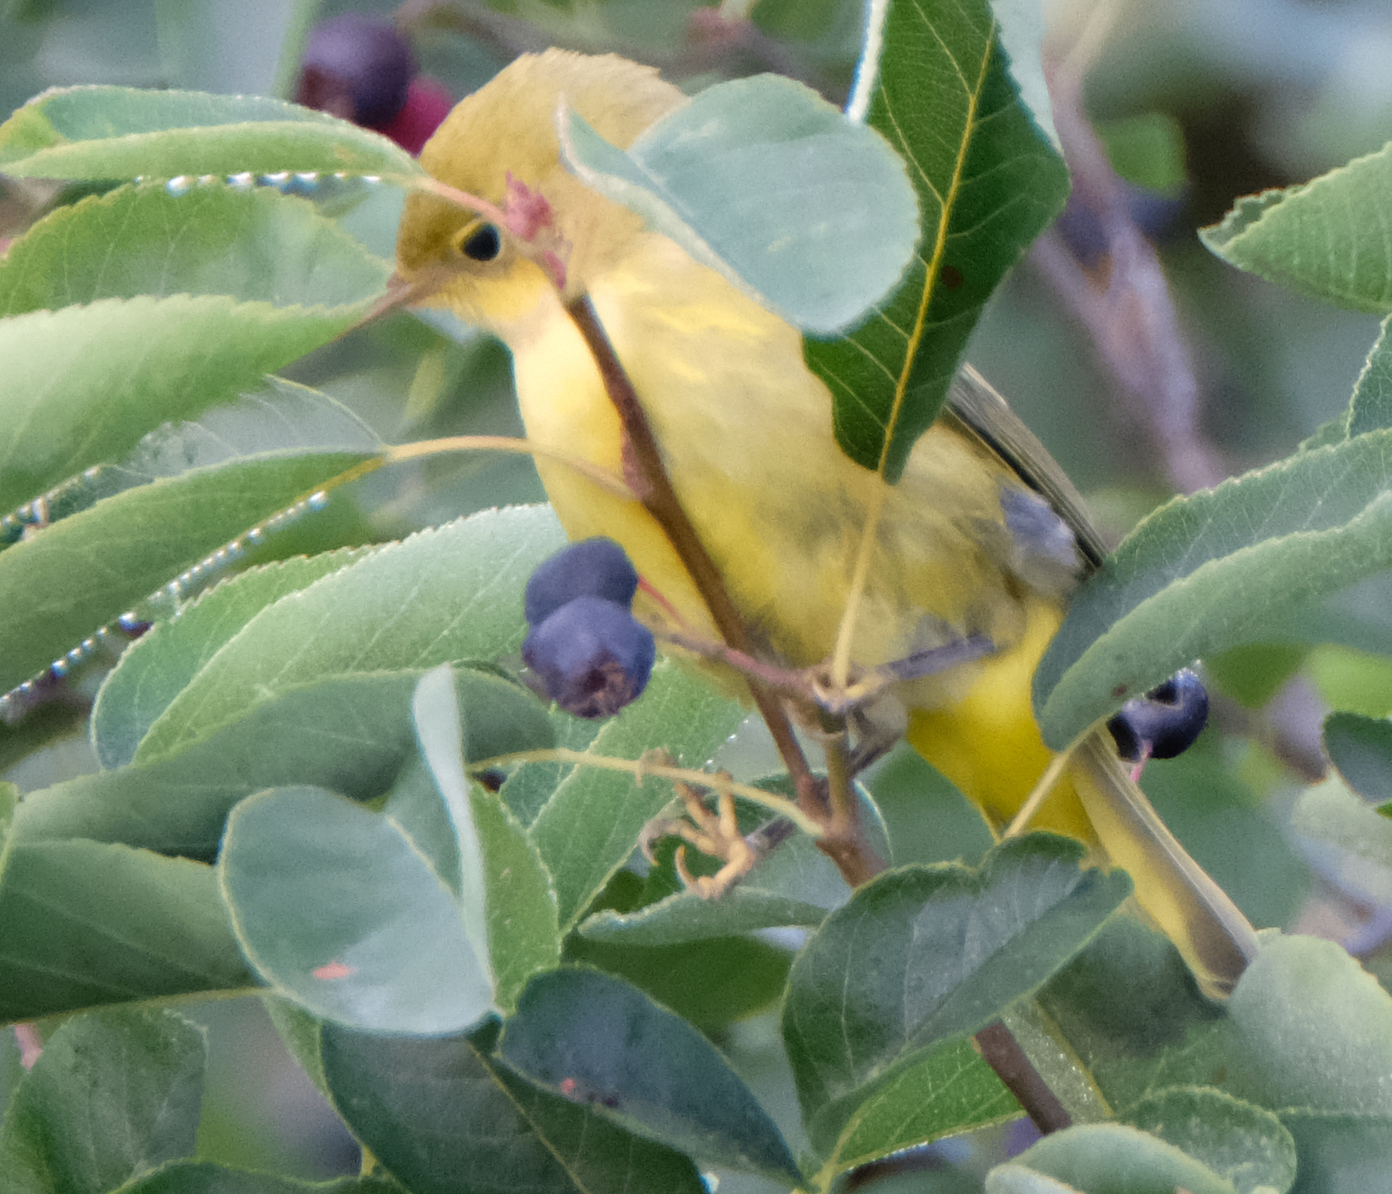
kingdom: Animalia
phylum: Chordata
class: Aves
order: Passeriformes
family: Parulidae
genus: Setophaga
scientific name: Setophaga petechia
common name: Yellow warbler
